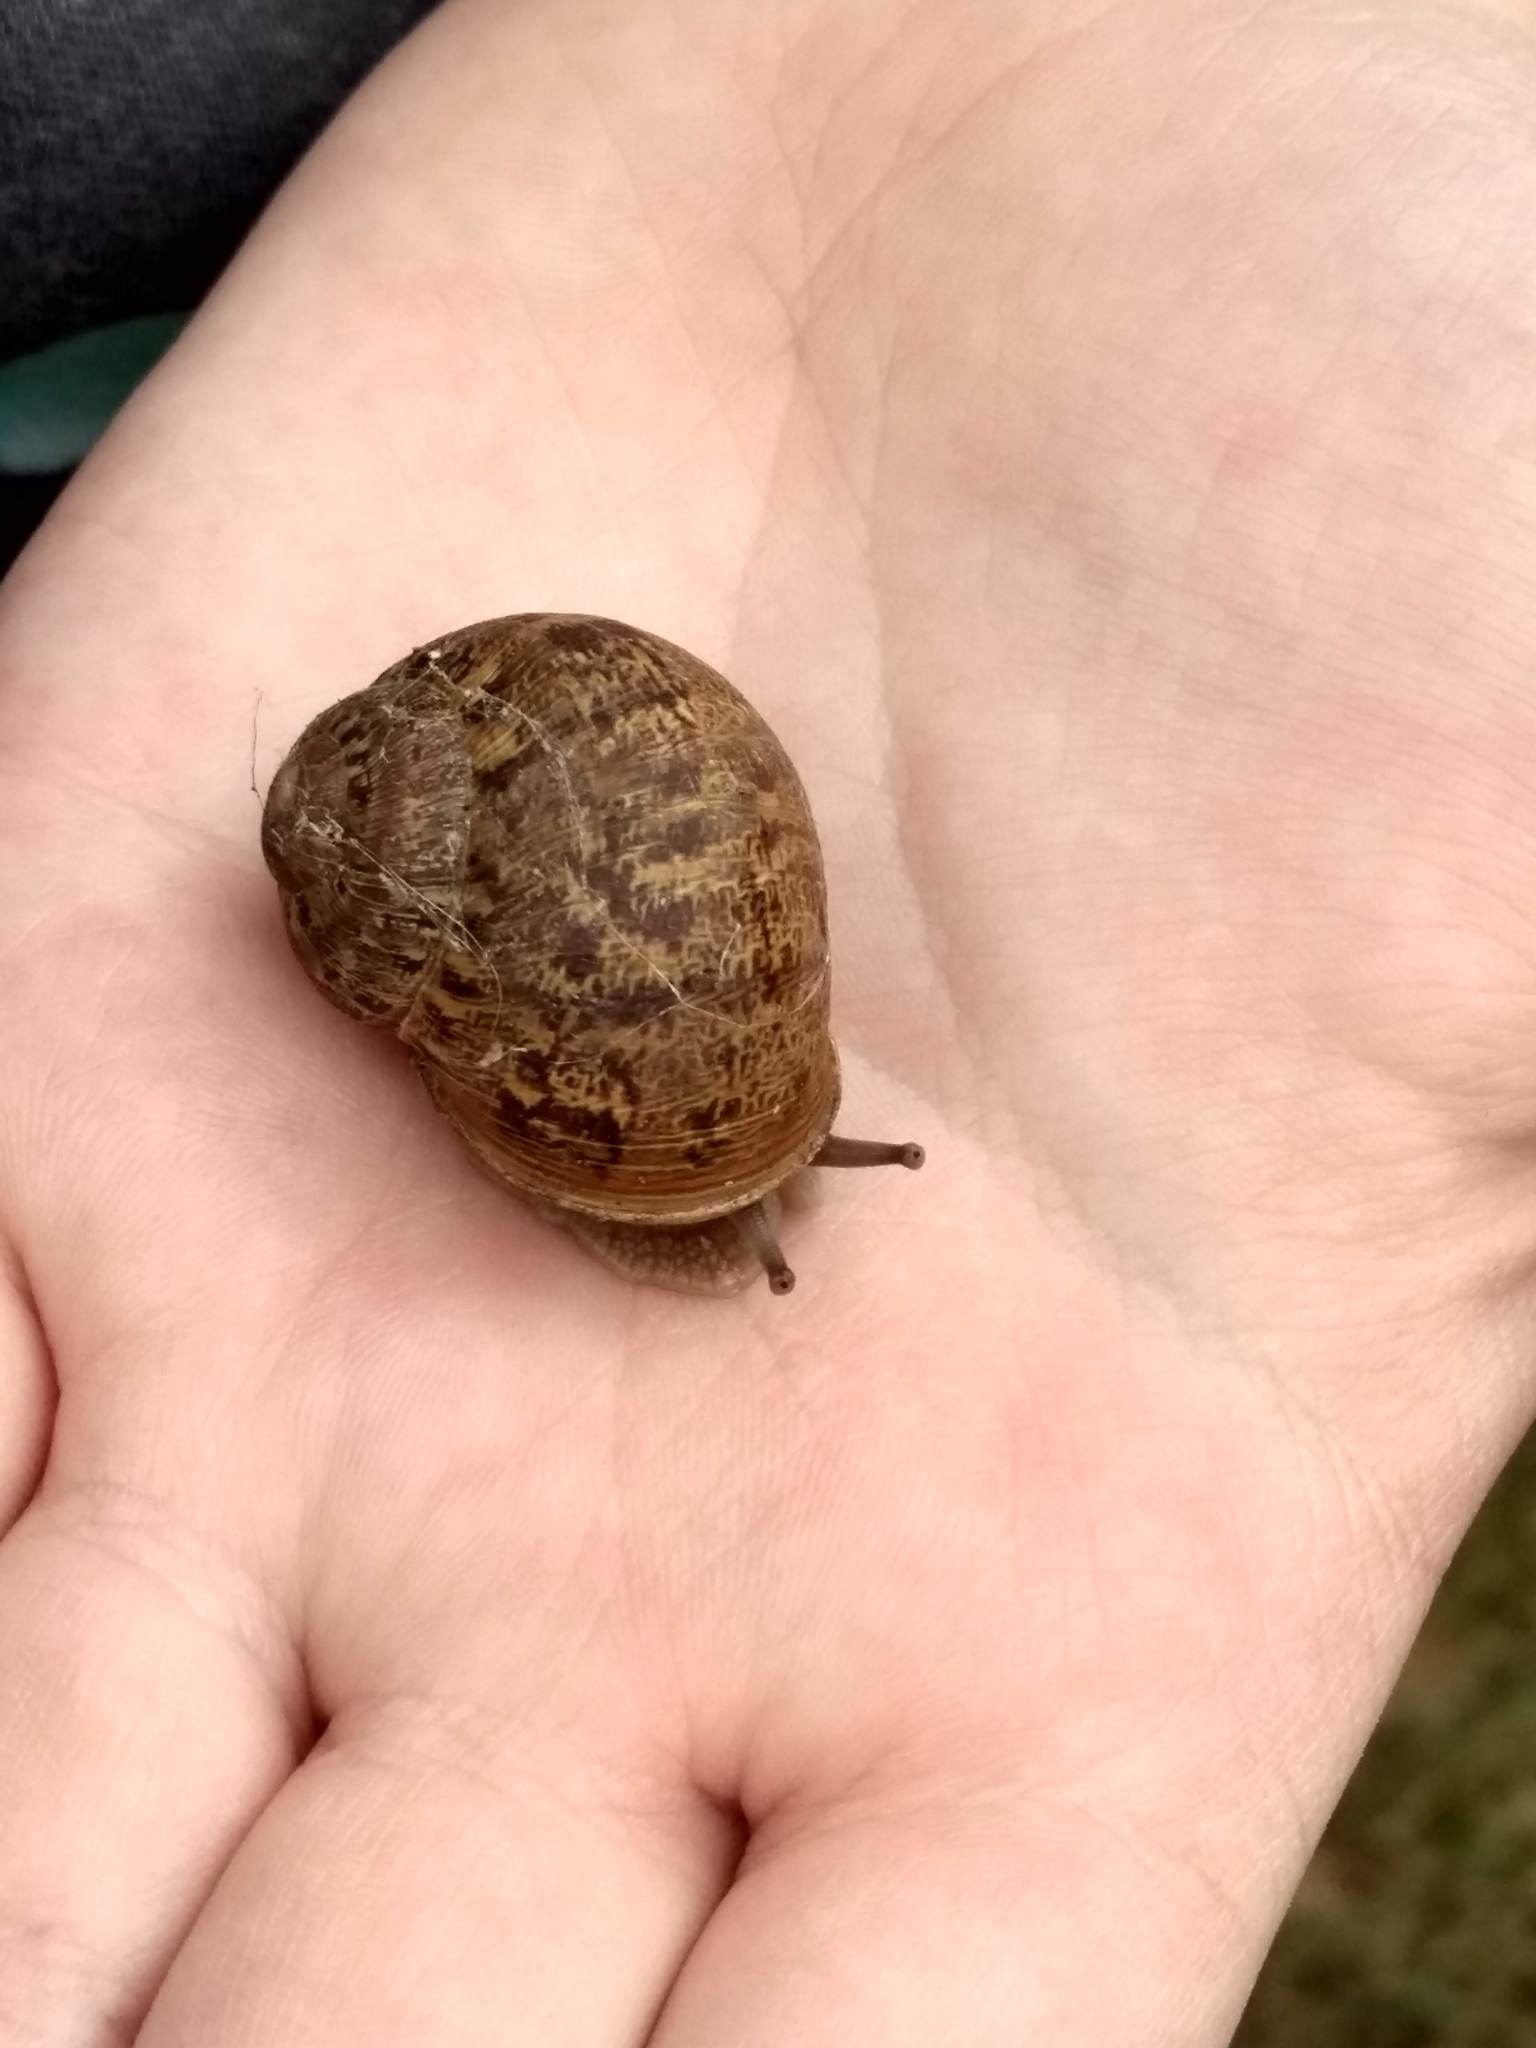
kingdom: Animalia
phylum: Mollusca
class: Gastropoda
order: Stylommatophora
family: Helicidae
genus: Cornu
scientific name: Cornu aspersum
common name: Brown garden snail
